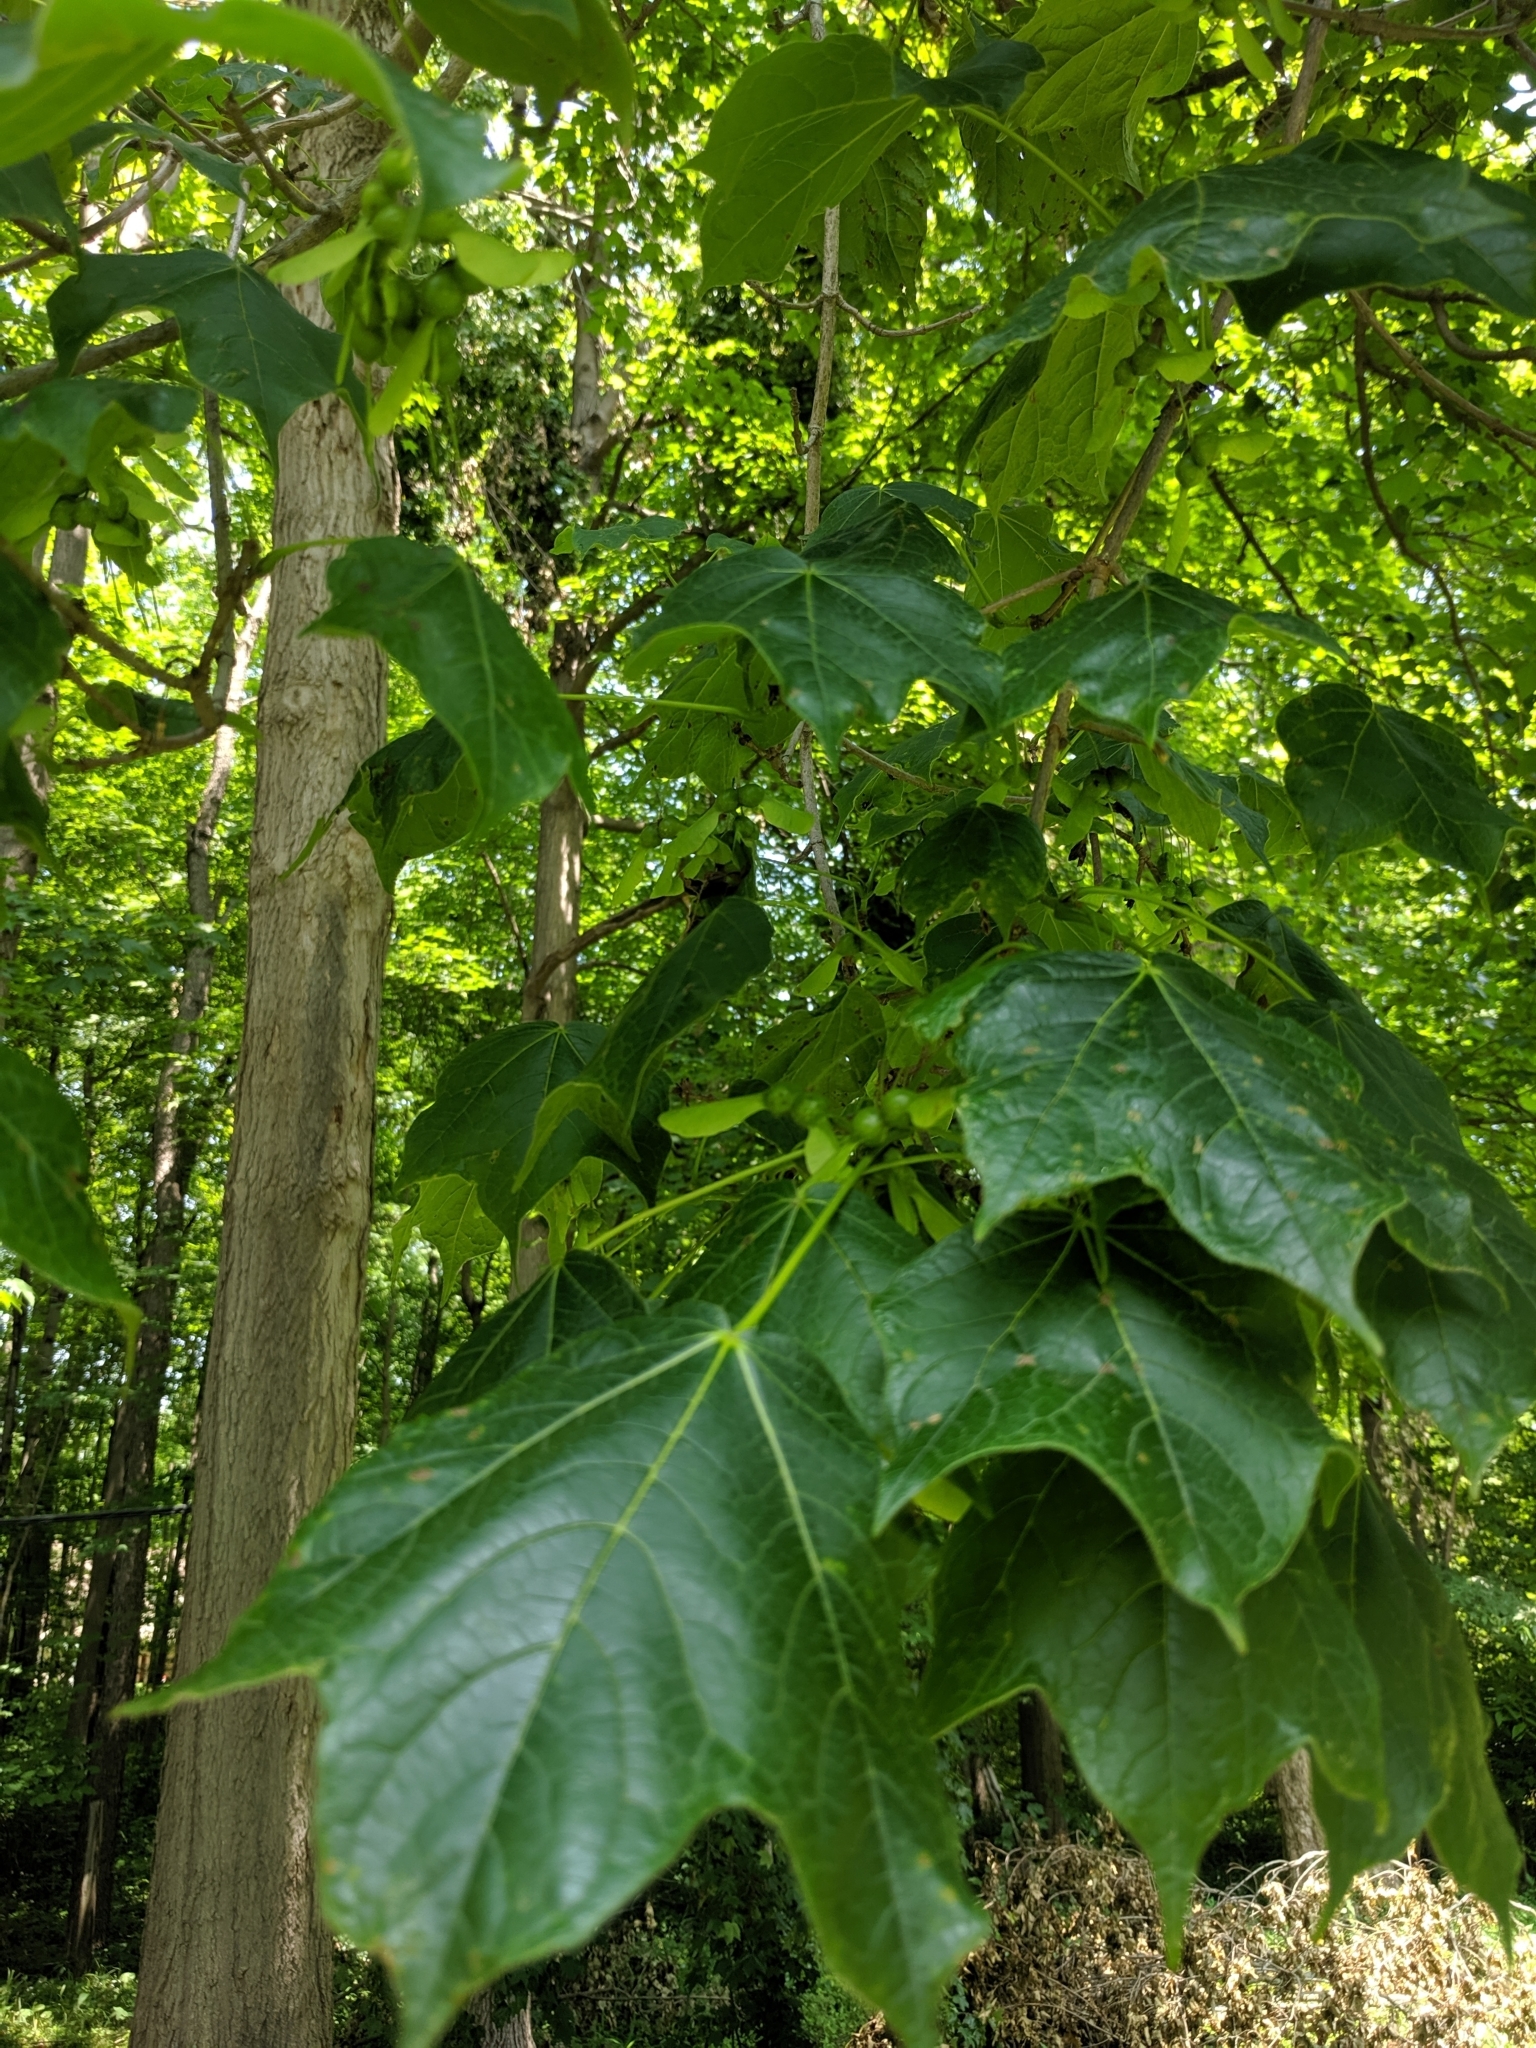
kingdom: Plantae
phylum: Tracheophyta
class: Magnoliopsida
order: Sapindales
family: Sapindaceae
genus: Acer
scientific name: Acer nigrum
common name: Black maple
